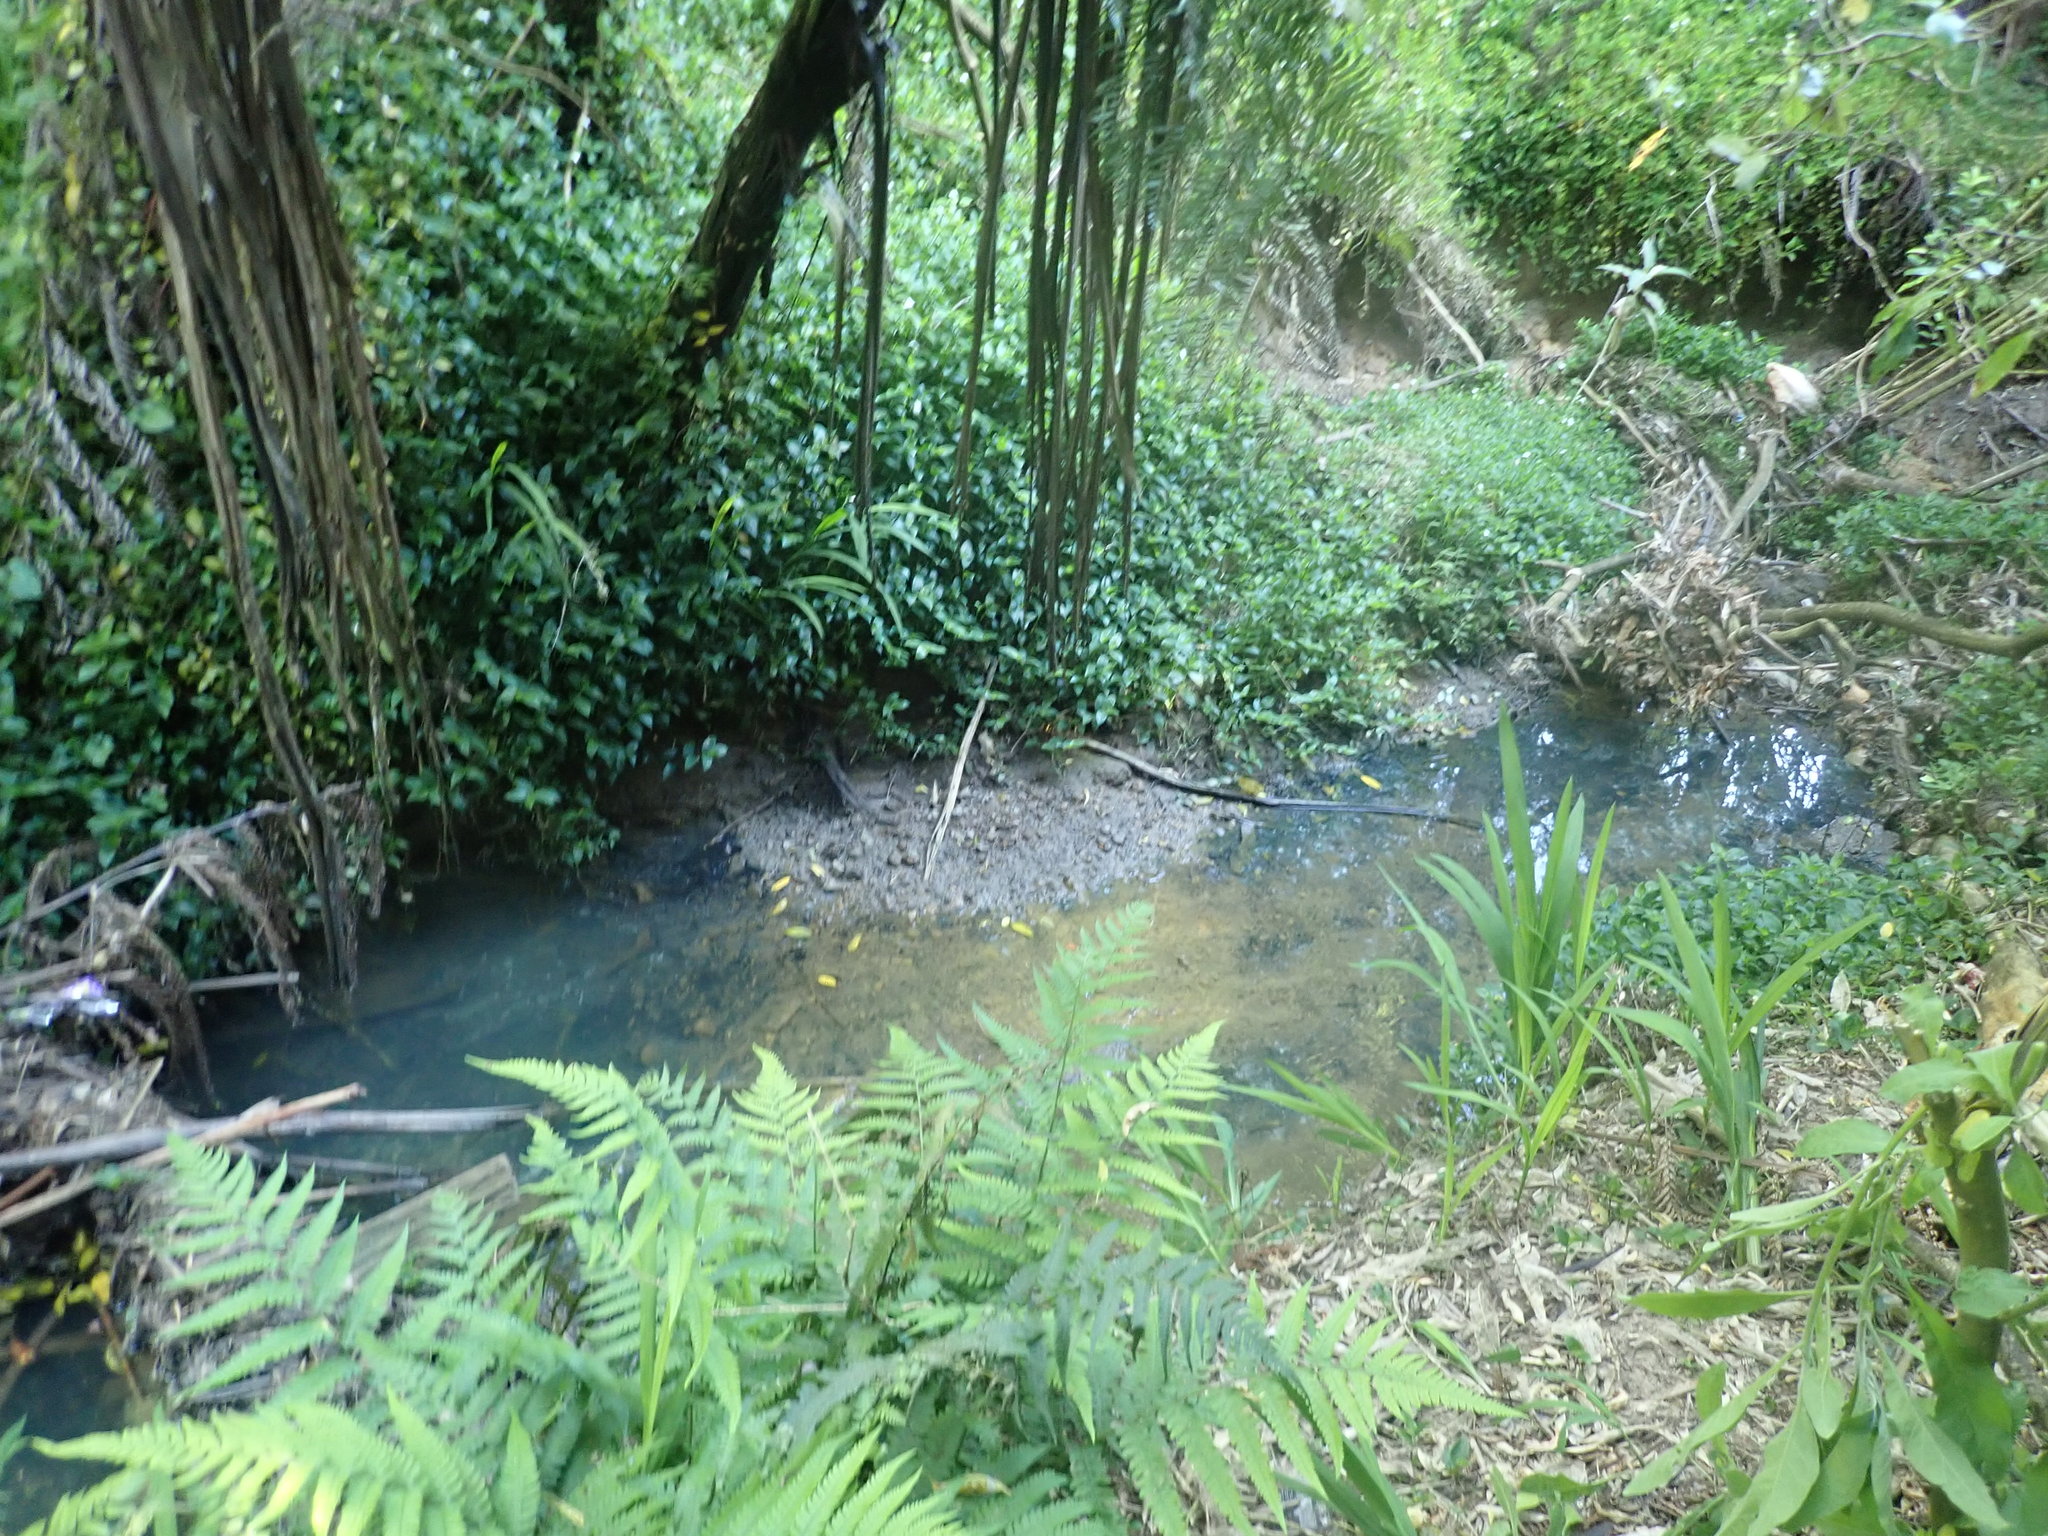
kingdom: Plantae
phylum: Tracheophyta
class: Magnoliopsida
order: Solanales
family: Solanaceae
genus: Solanum
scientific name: Solanum mauritianum
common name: Earleaf nightshade
